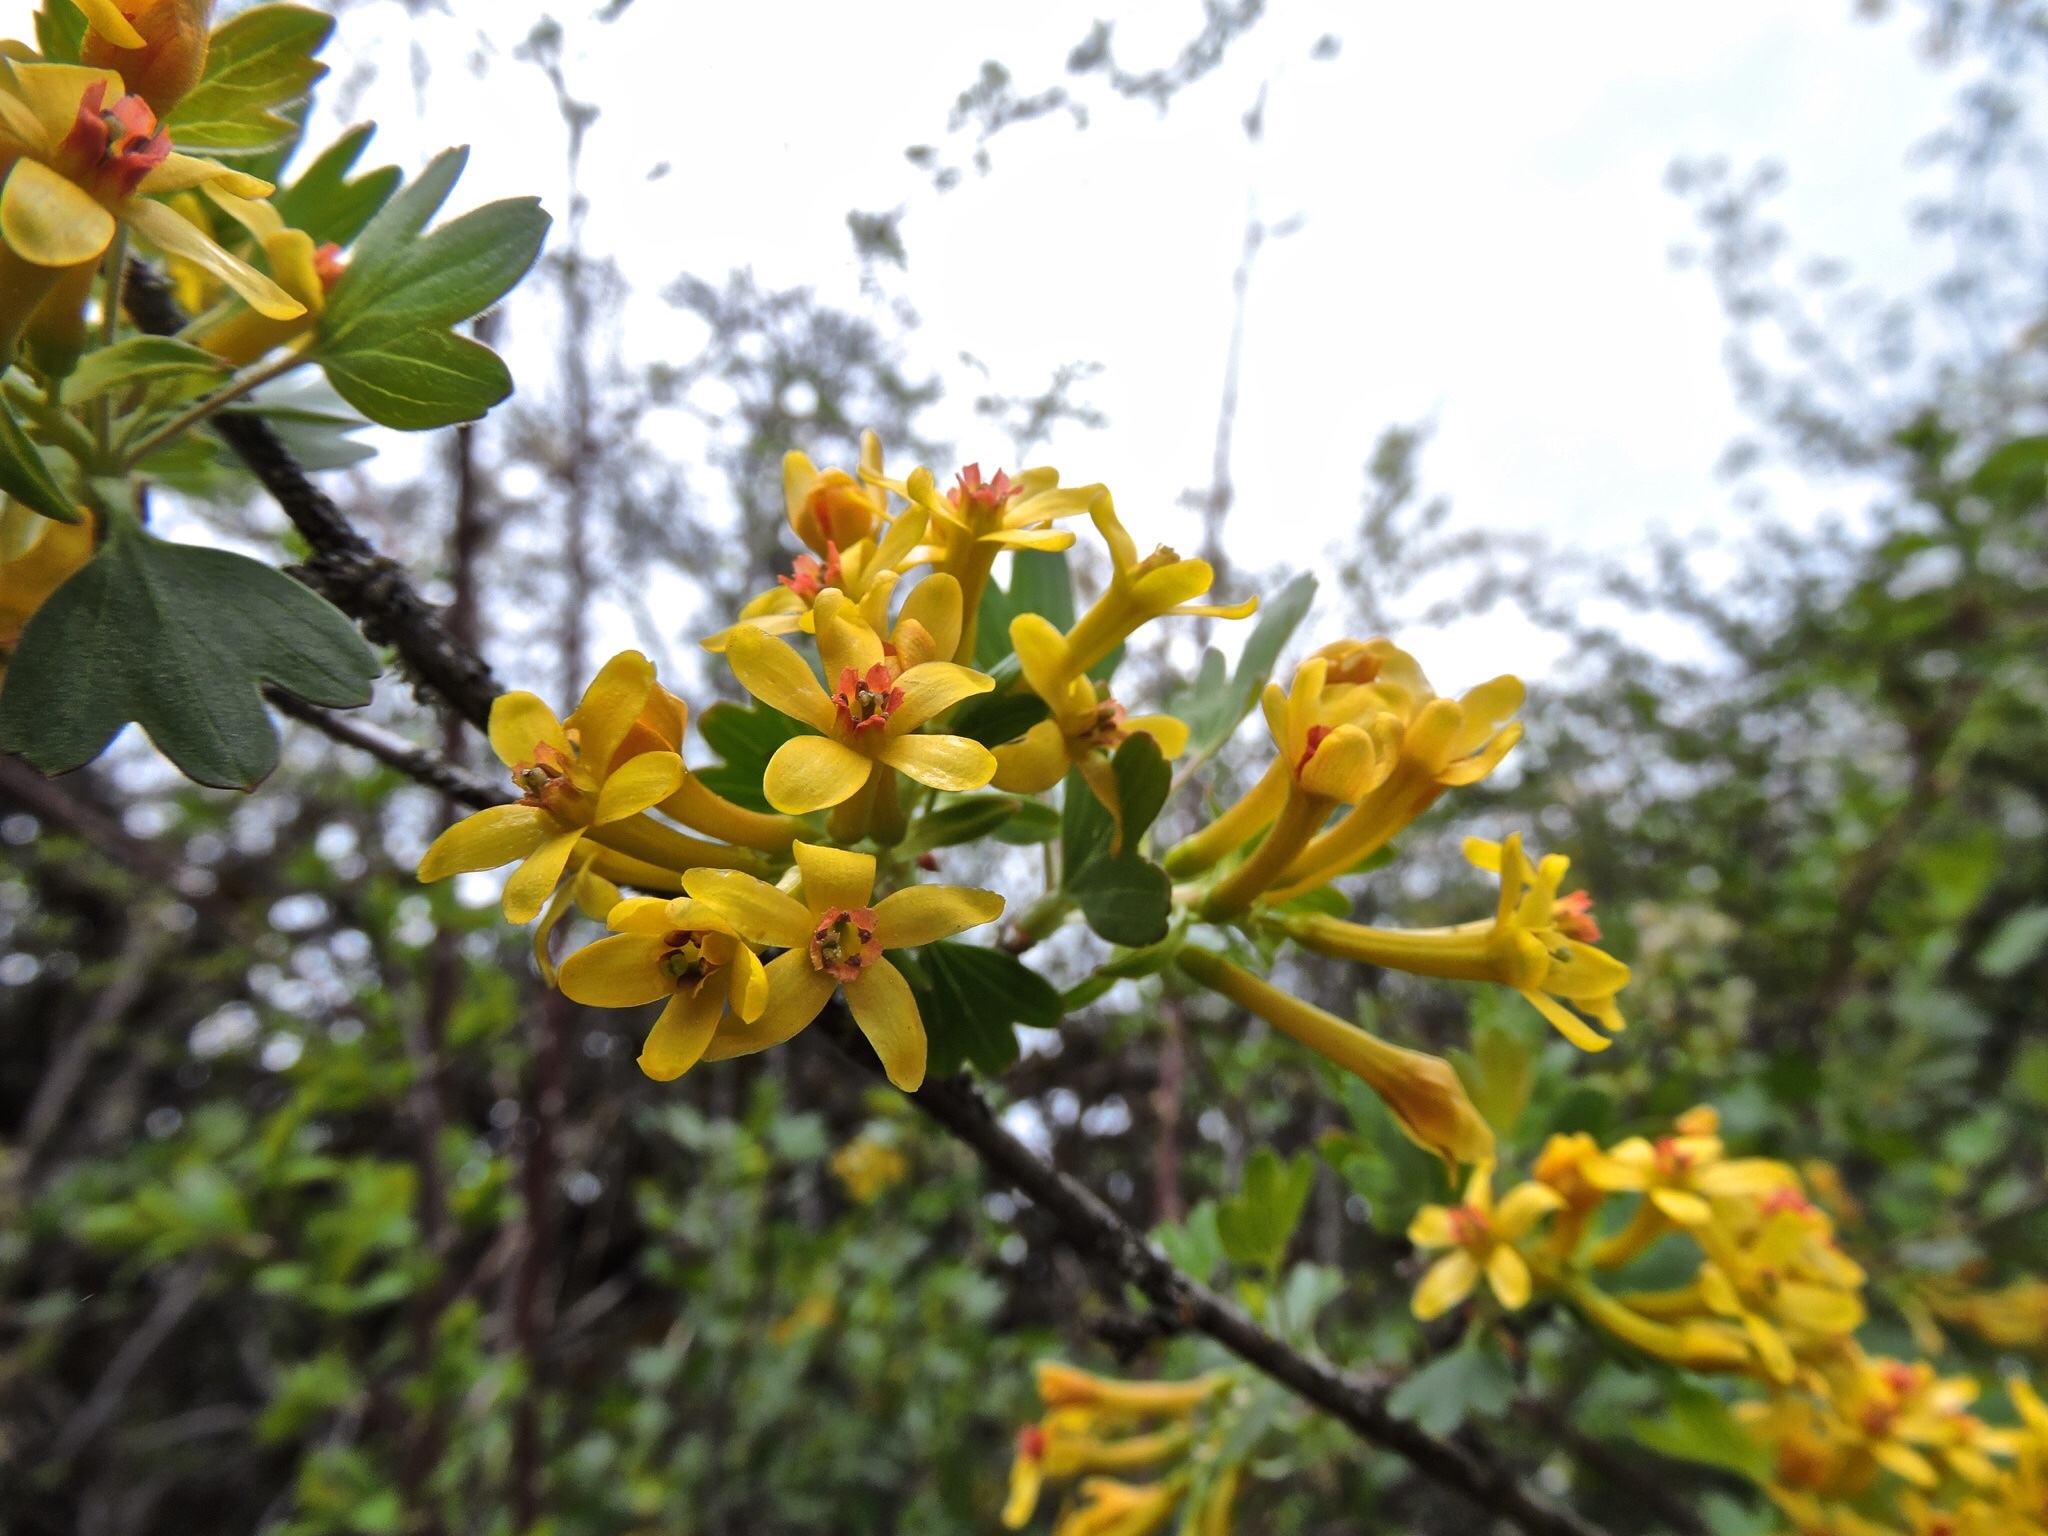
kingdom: Plantae
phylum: Tracheophyta
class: Magnoliopsida
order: Saxifragales
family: Grossulariaceae
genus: Ribes
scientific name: Ribes aureum
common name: Golden currant
